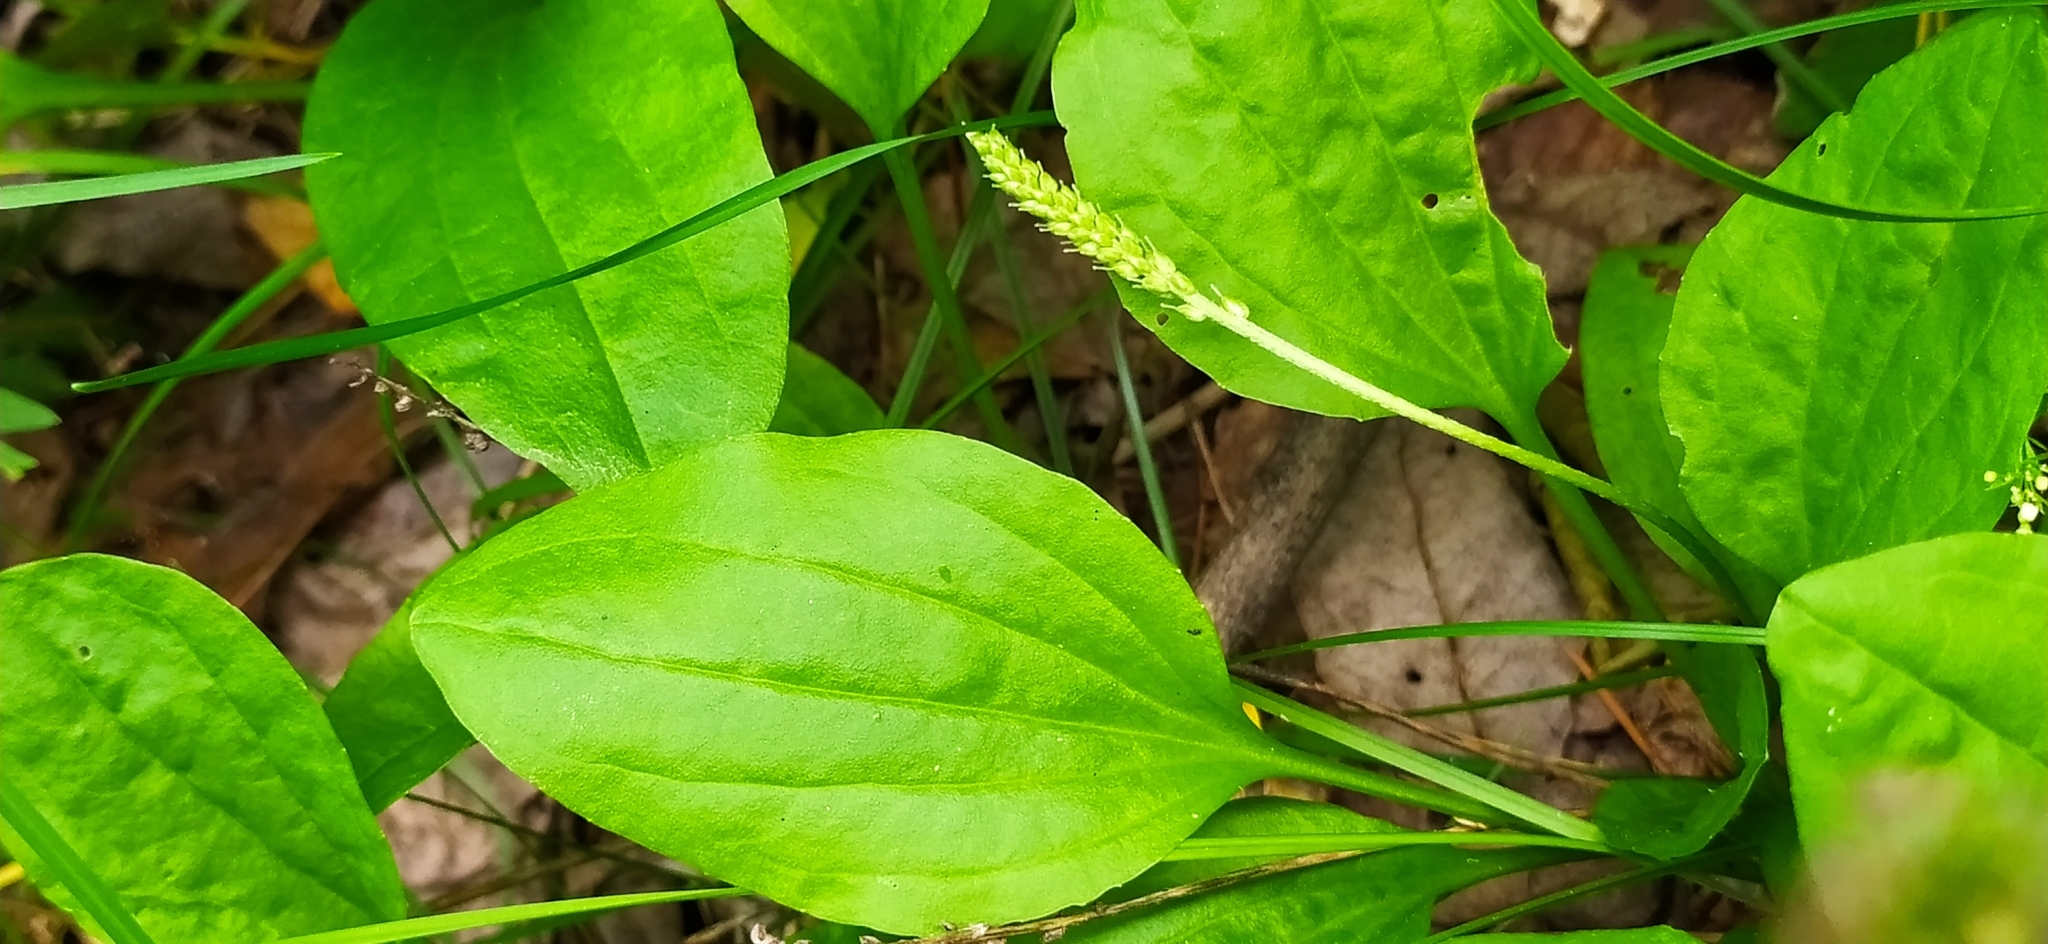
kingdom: Plantae
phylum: Tracheophyta
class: Magnoliopsida
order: Lamiales
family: Plantaginaceae
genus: Plantago
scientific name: Plantago major
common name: Common plantain
